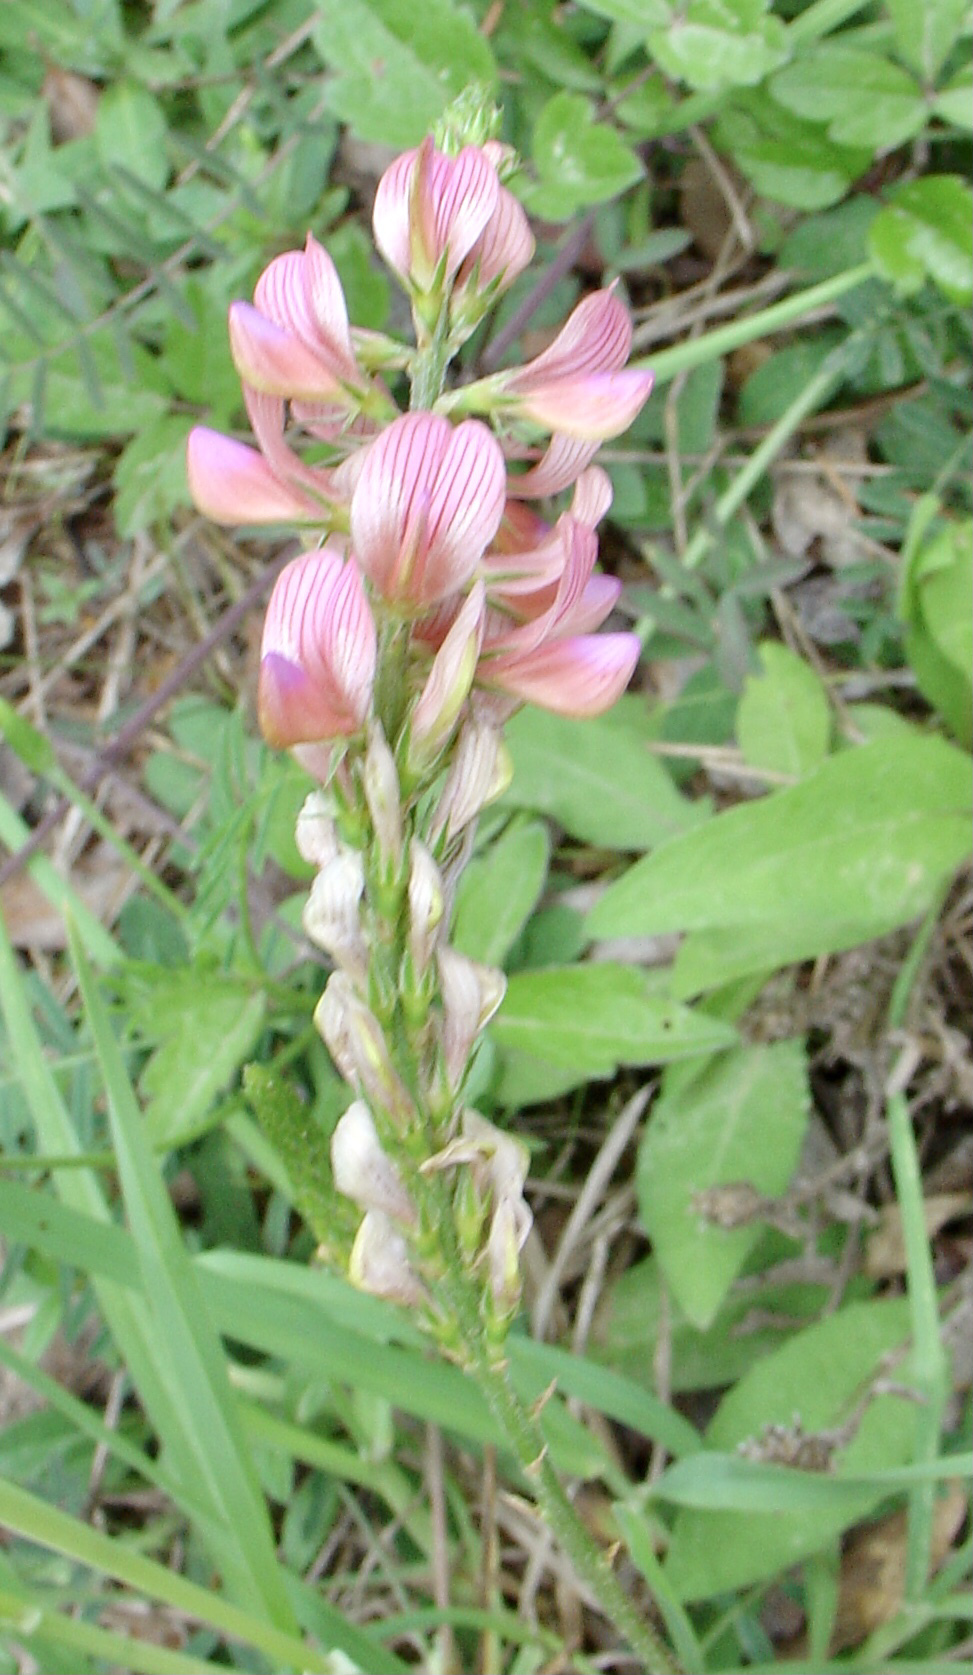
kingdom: Plantae
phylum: Tracheophyta
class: Magnoliopsida
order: Fabales
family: Fabaceae
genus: Onobrychis
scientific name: Onobrychis viciifolia
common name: Sainfoin
